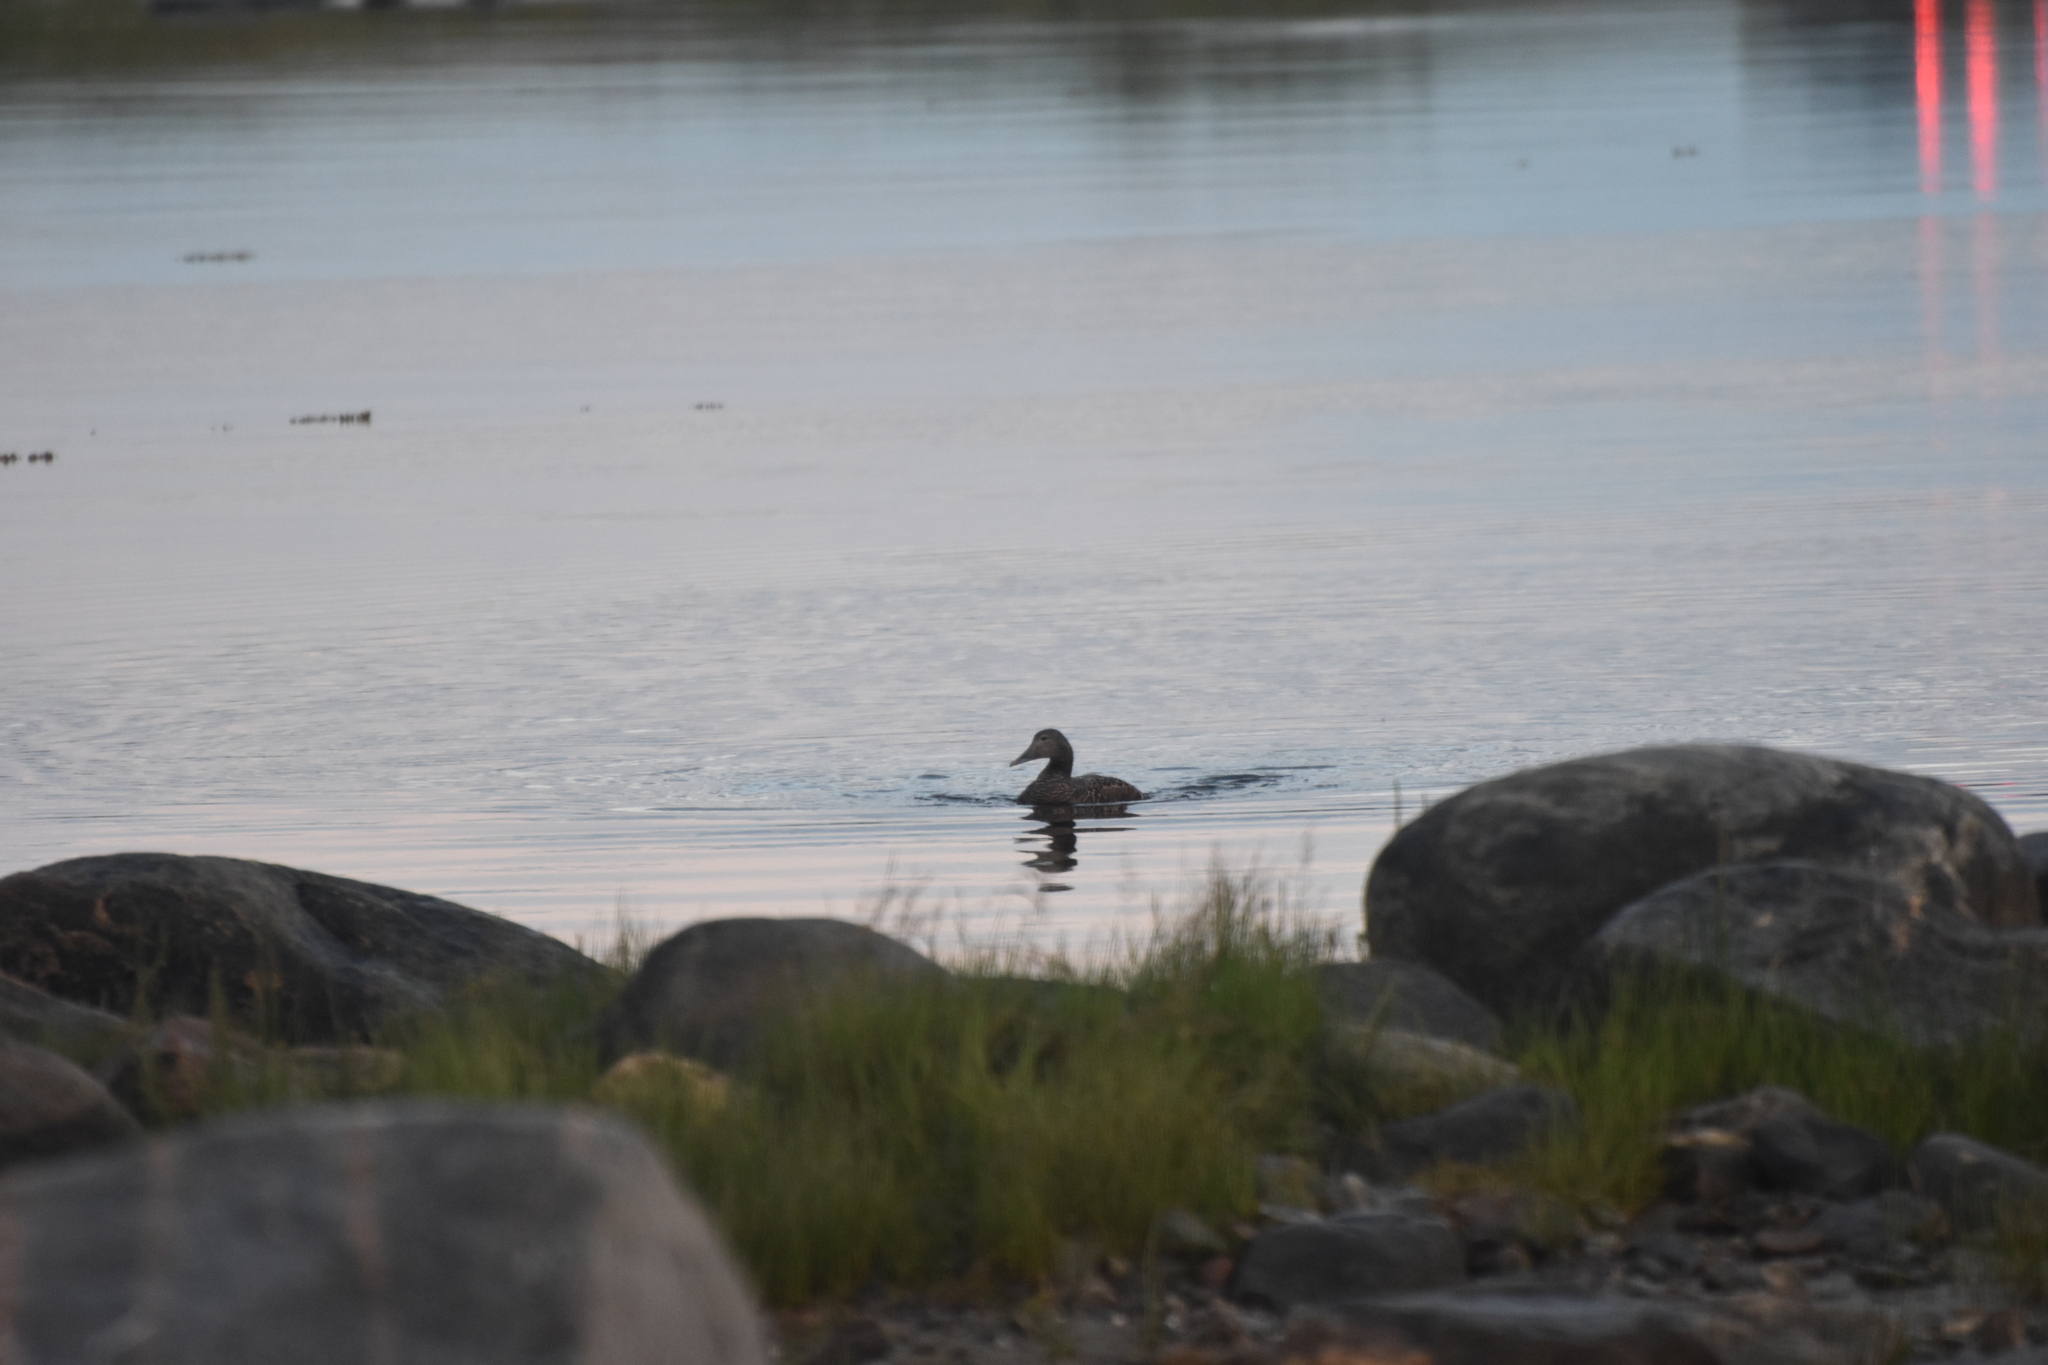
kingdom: Animalia
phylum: Chordata
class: Aves
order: Anseriformes
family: Anatidae
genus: Somateria
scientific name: Somateria mollissima
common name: Common eider
